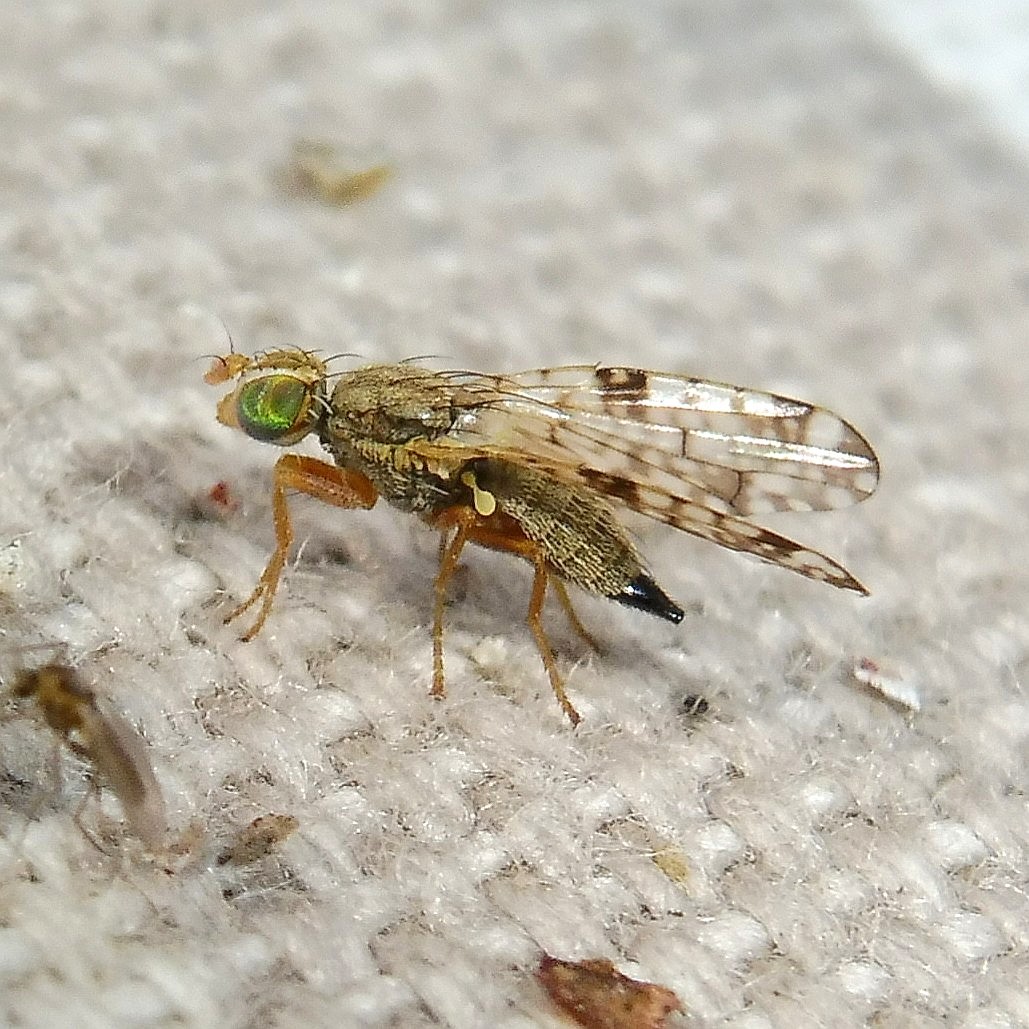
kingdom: Animalia
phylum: Arthropoda
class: Insecta
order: Diptera
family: Tephritidae
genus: Dioxyna
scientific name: Dioxyna bidentis
